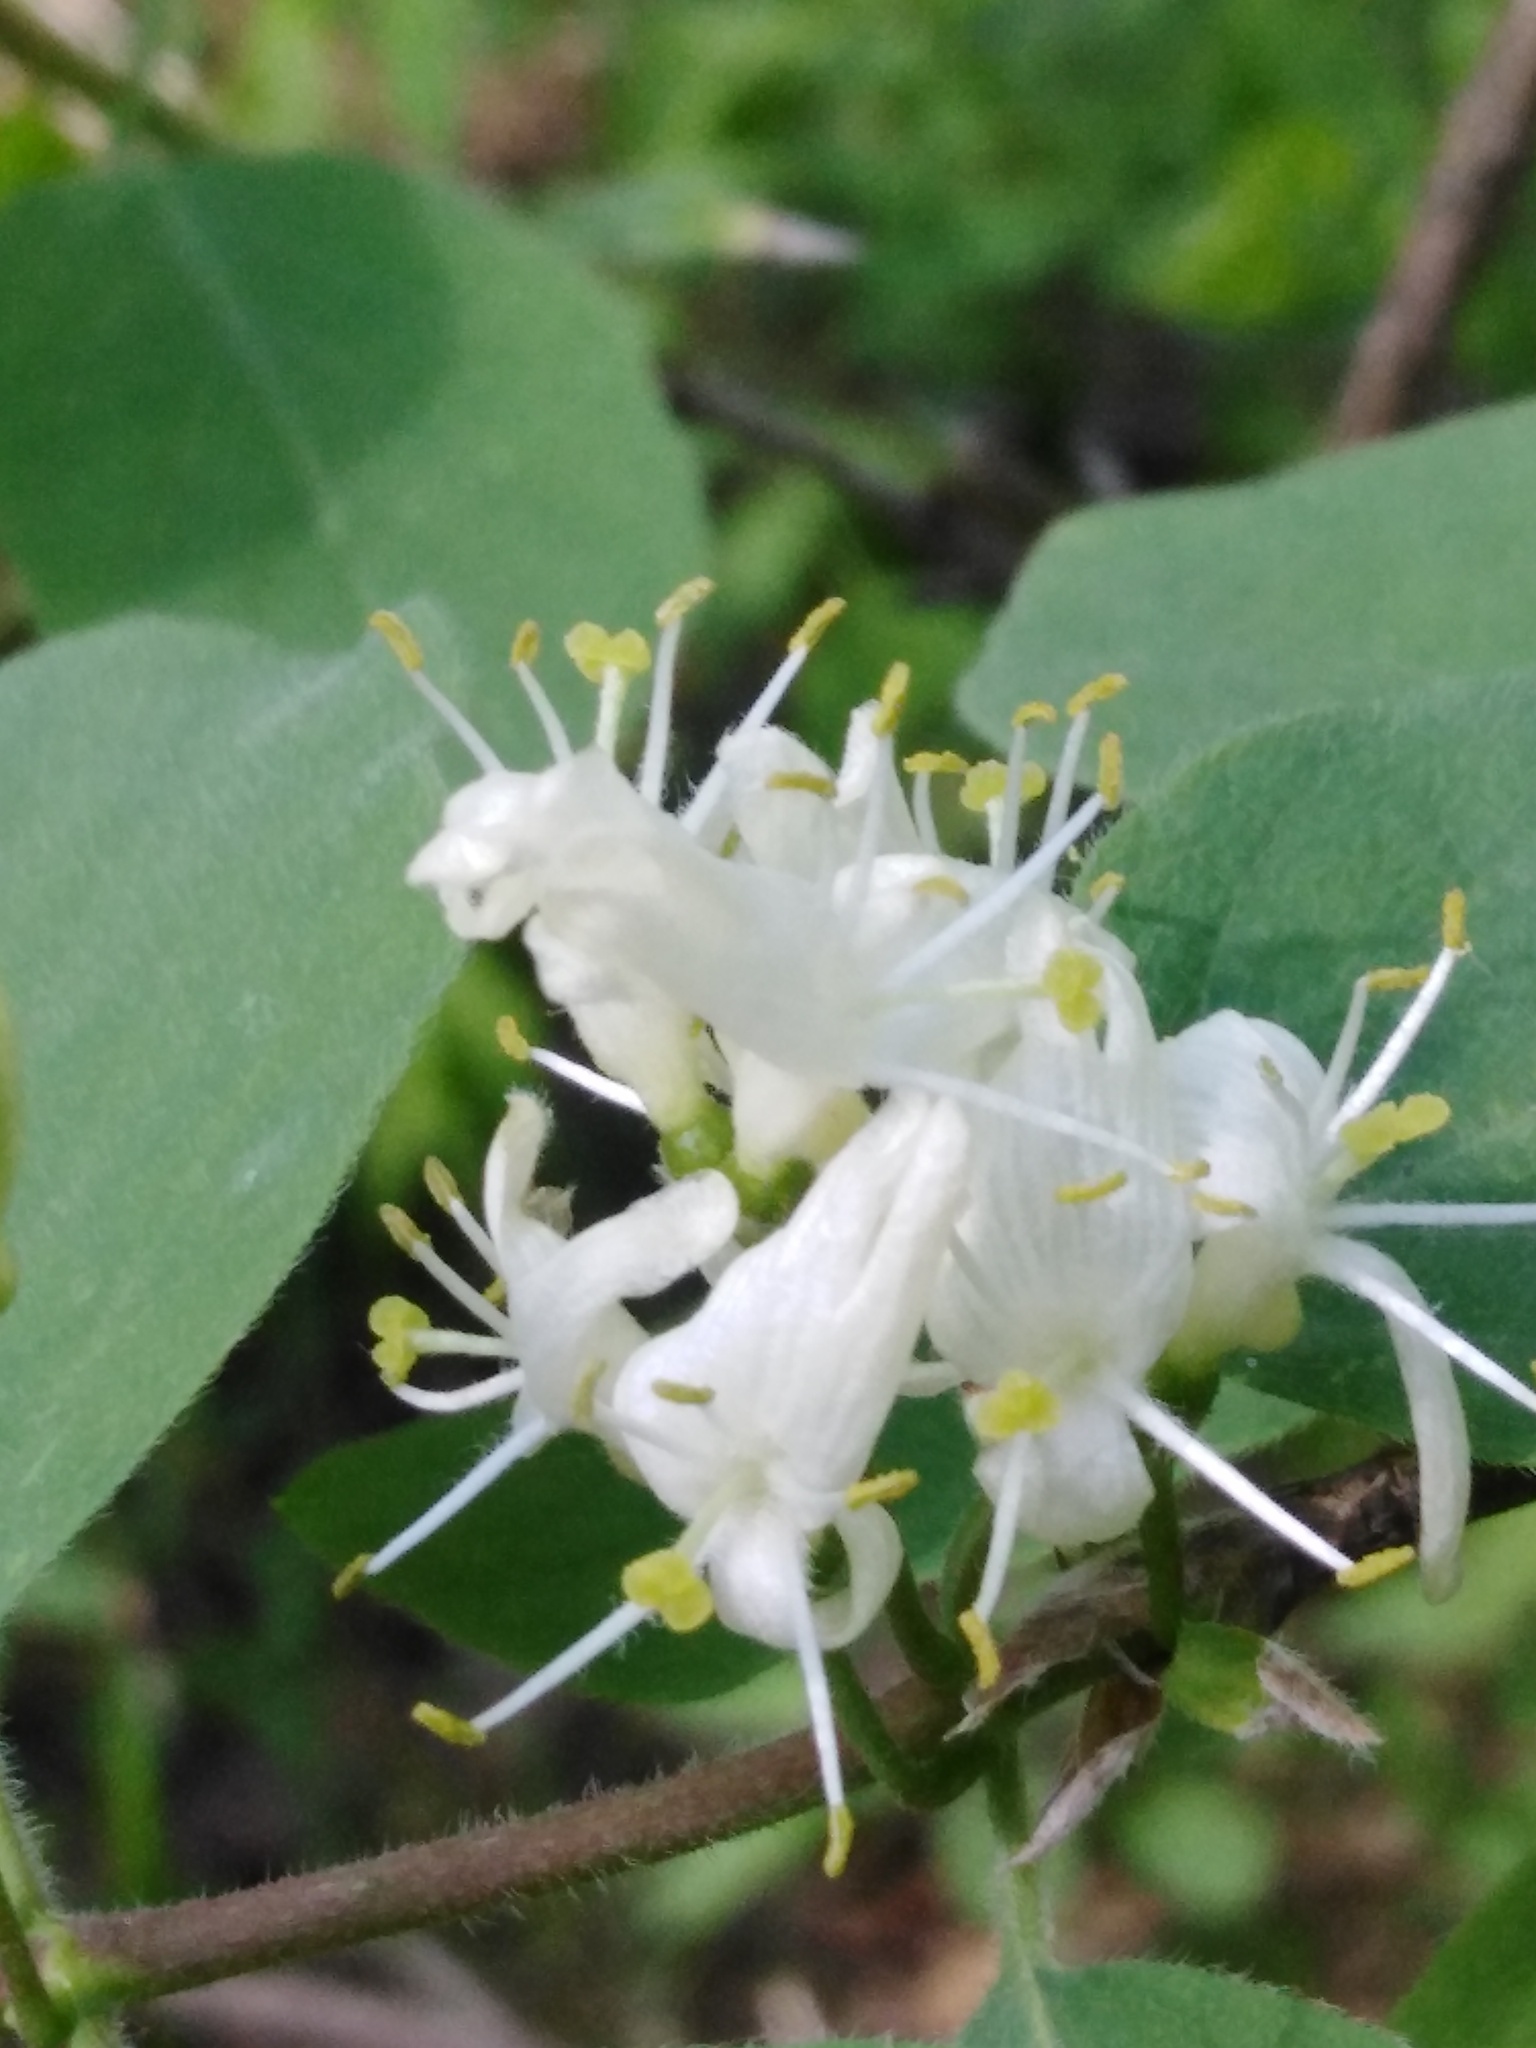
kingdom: Plantae
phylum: Tracheophyta
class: Magnoliopsida
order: Dipsacales
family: Caprifoliaceae
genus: Lonicera
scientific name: Lonicera xylosteum
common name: Fly honeysuckle
